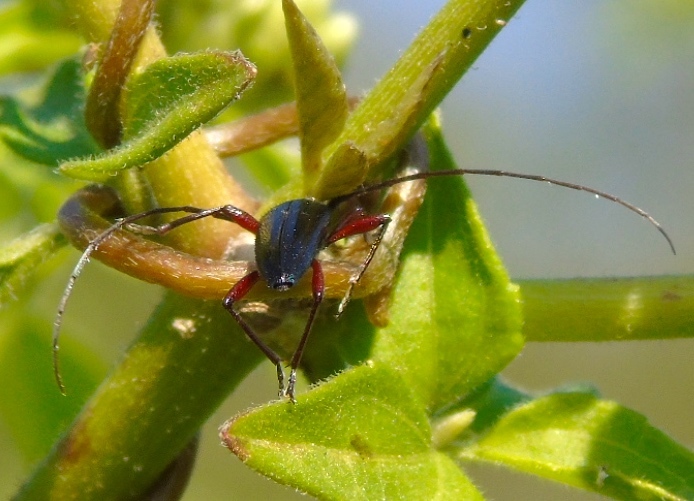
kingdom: Animalia
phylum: Arthropoda
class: Insecta
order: Coleoptera
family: Cerambycidae
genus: Stenosphenus
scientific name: Stenosphenus
